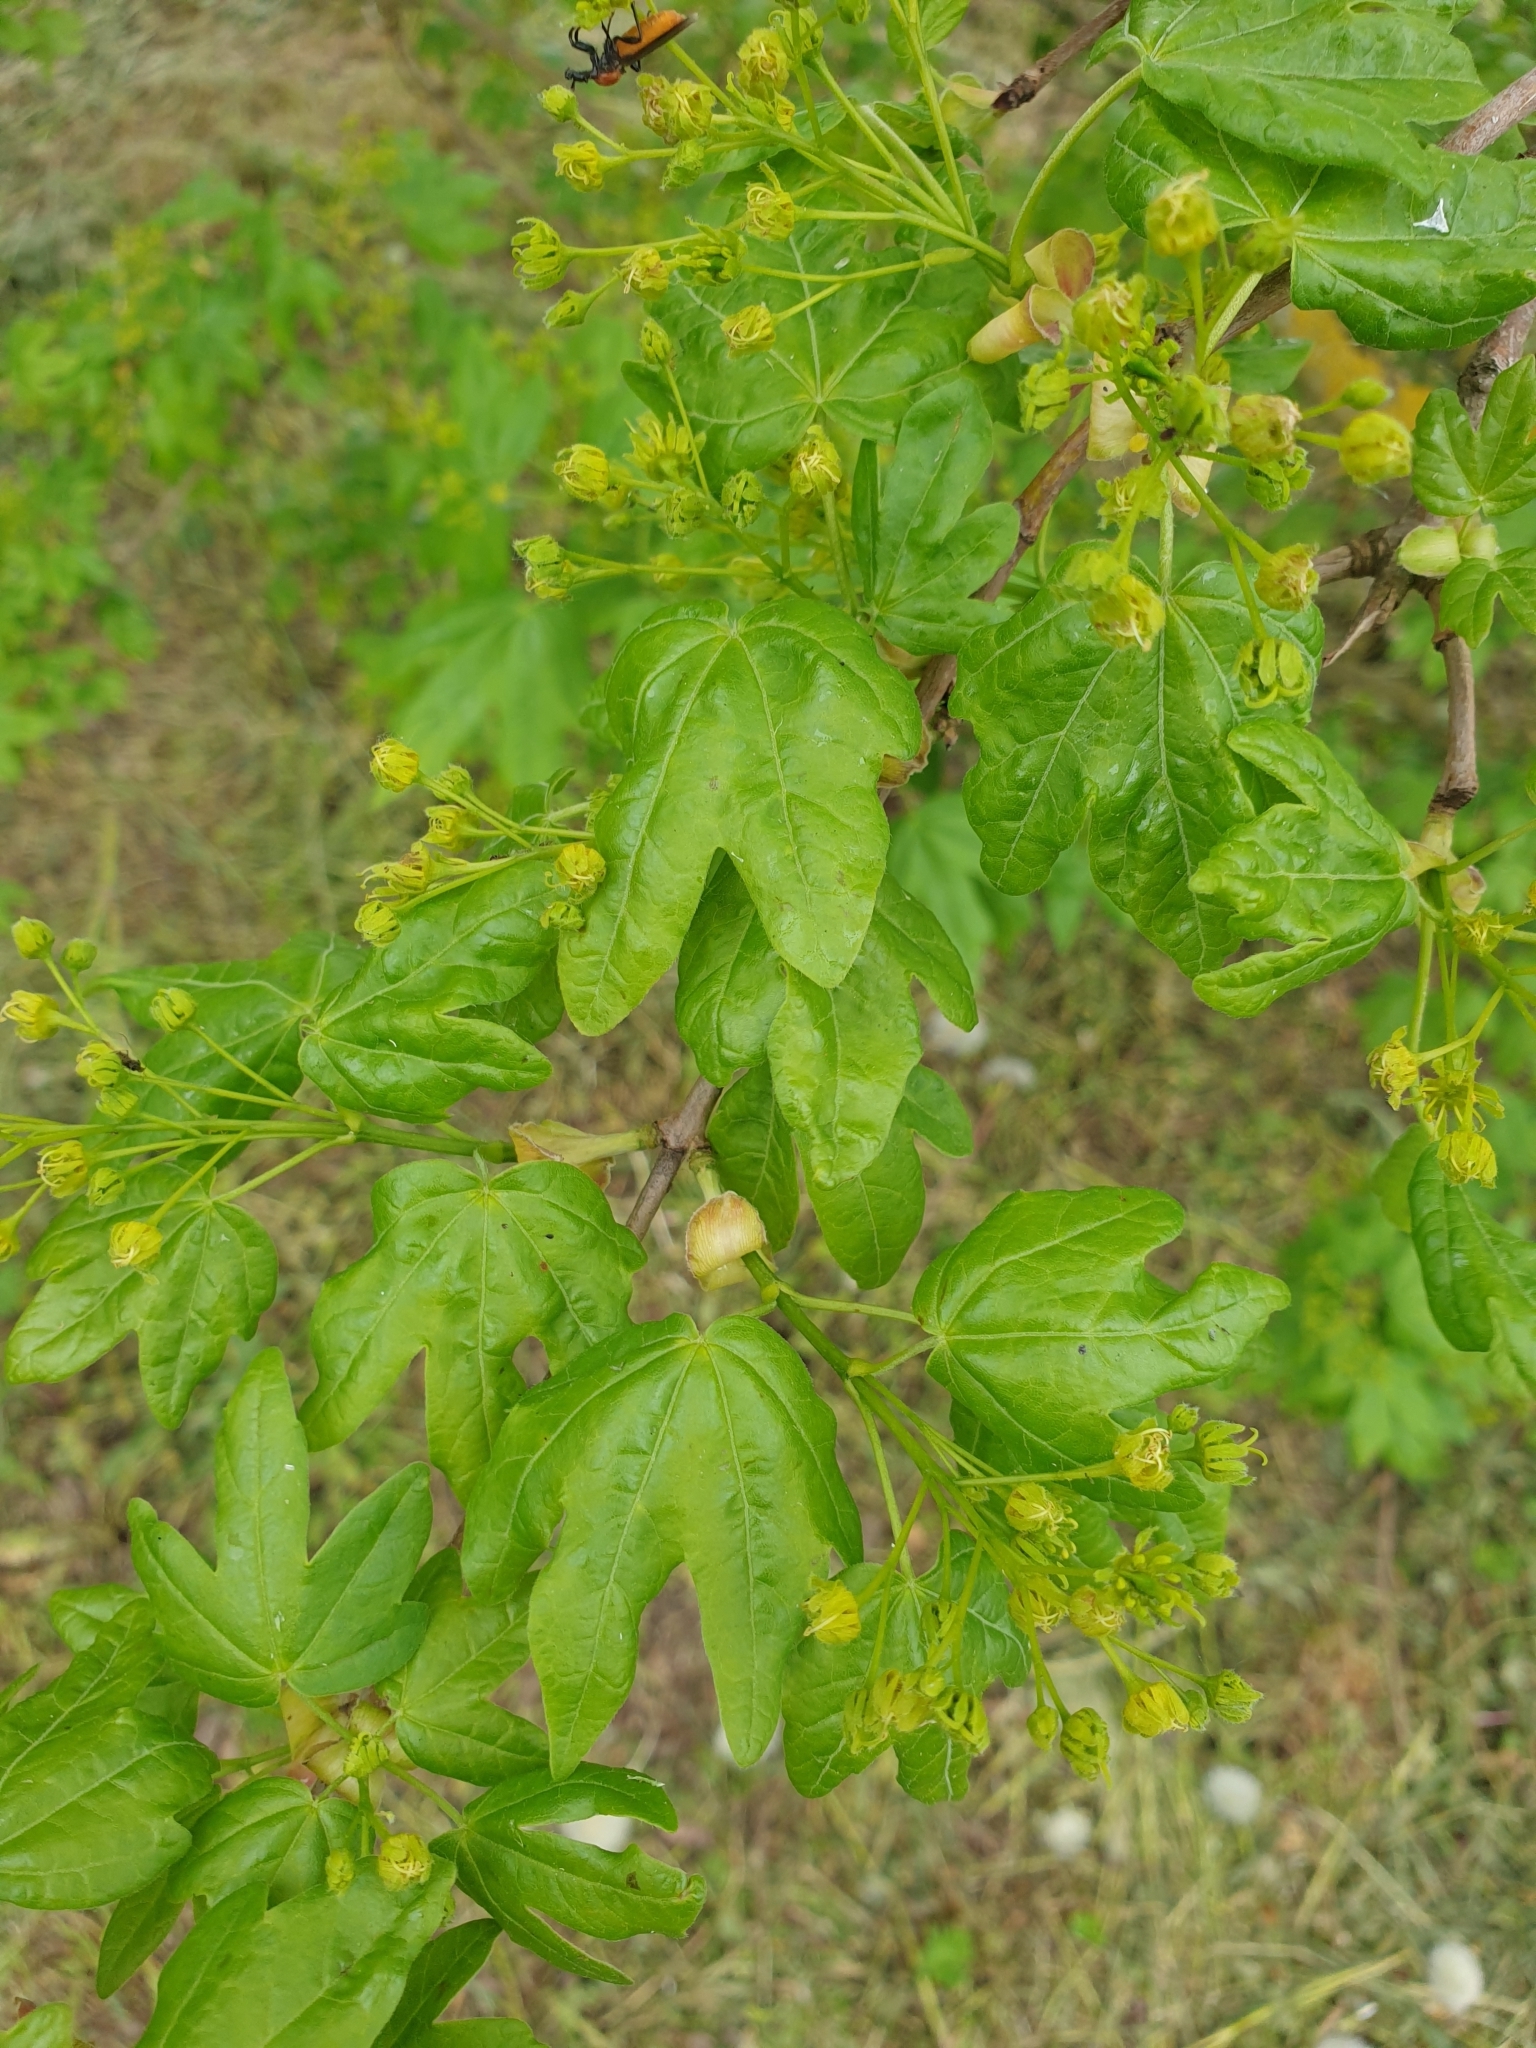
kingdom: Plantae
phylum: Tracheophyta
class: Magnoliopsida
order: Sapindales
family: Sapindaceae
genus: Acer
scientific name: Acer campestre
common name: Field maple
